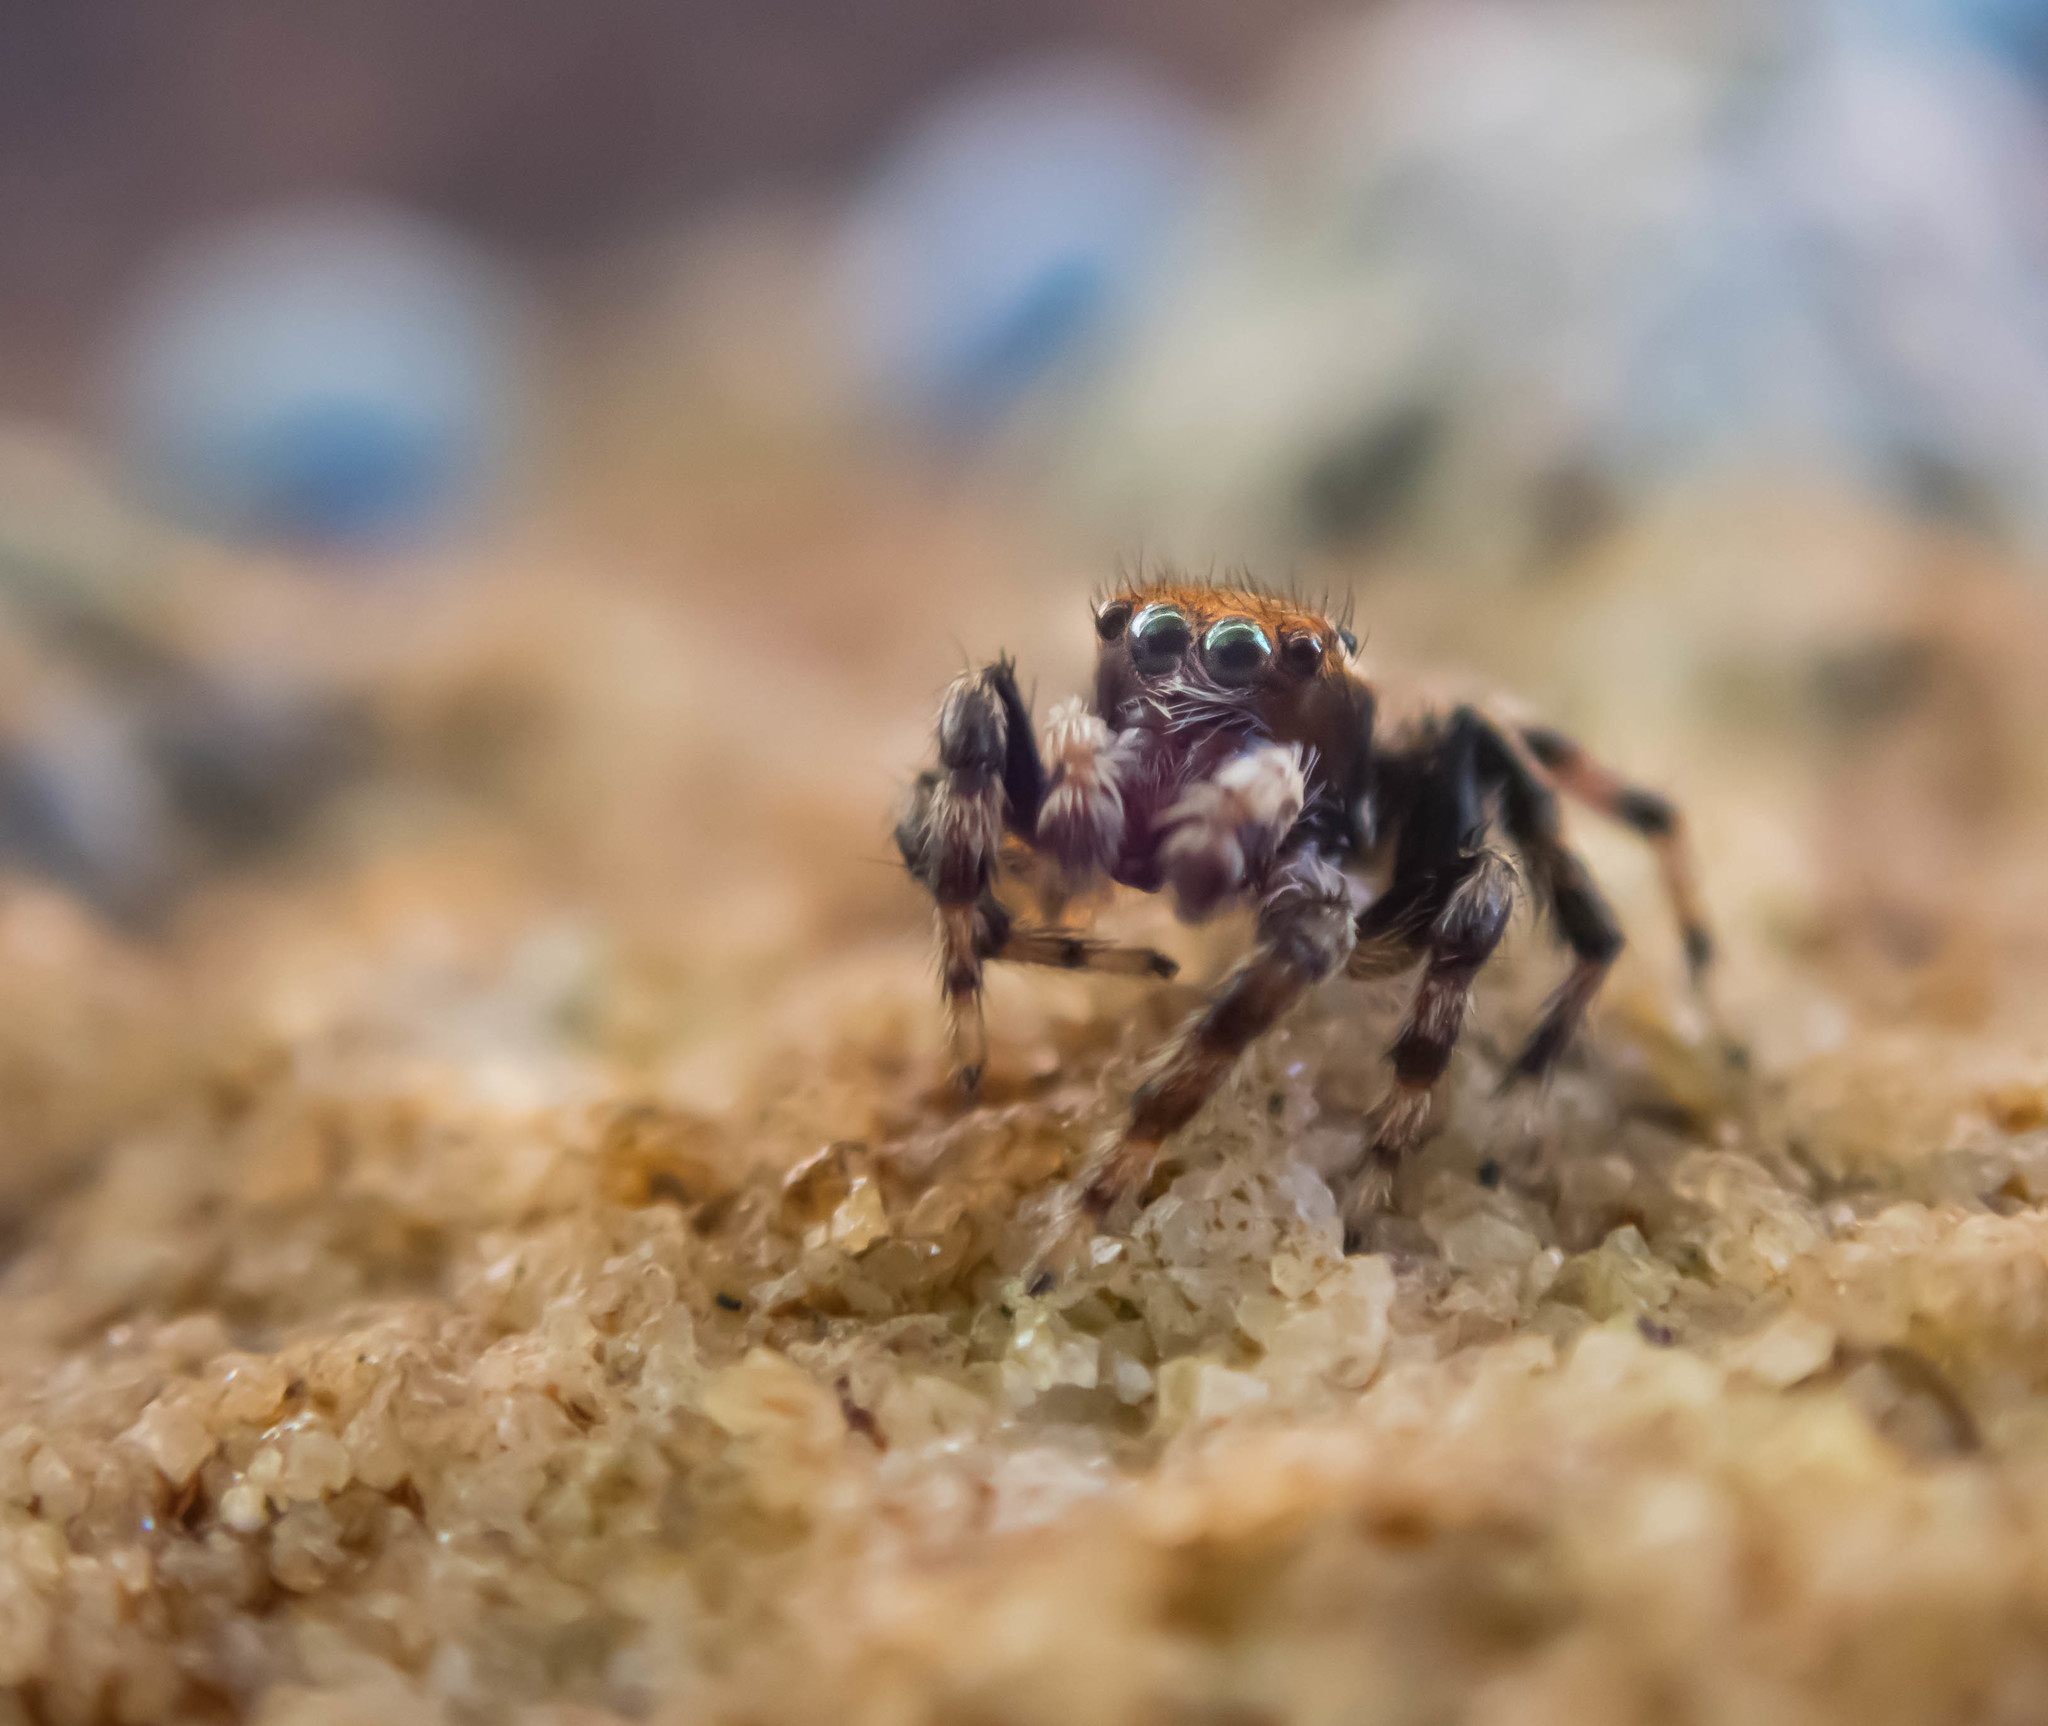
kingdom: Animalia
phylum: Arthropoda
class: Arachnida
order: Araneae
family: Salticidae
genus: Maratus
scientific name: Maratus griseus
